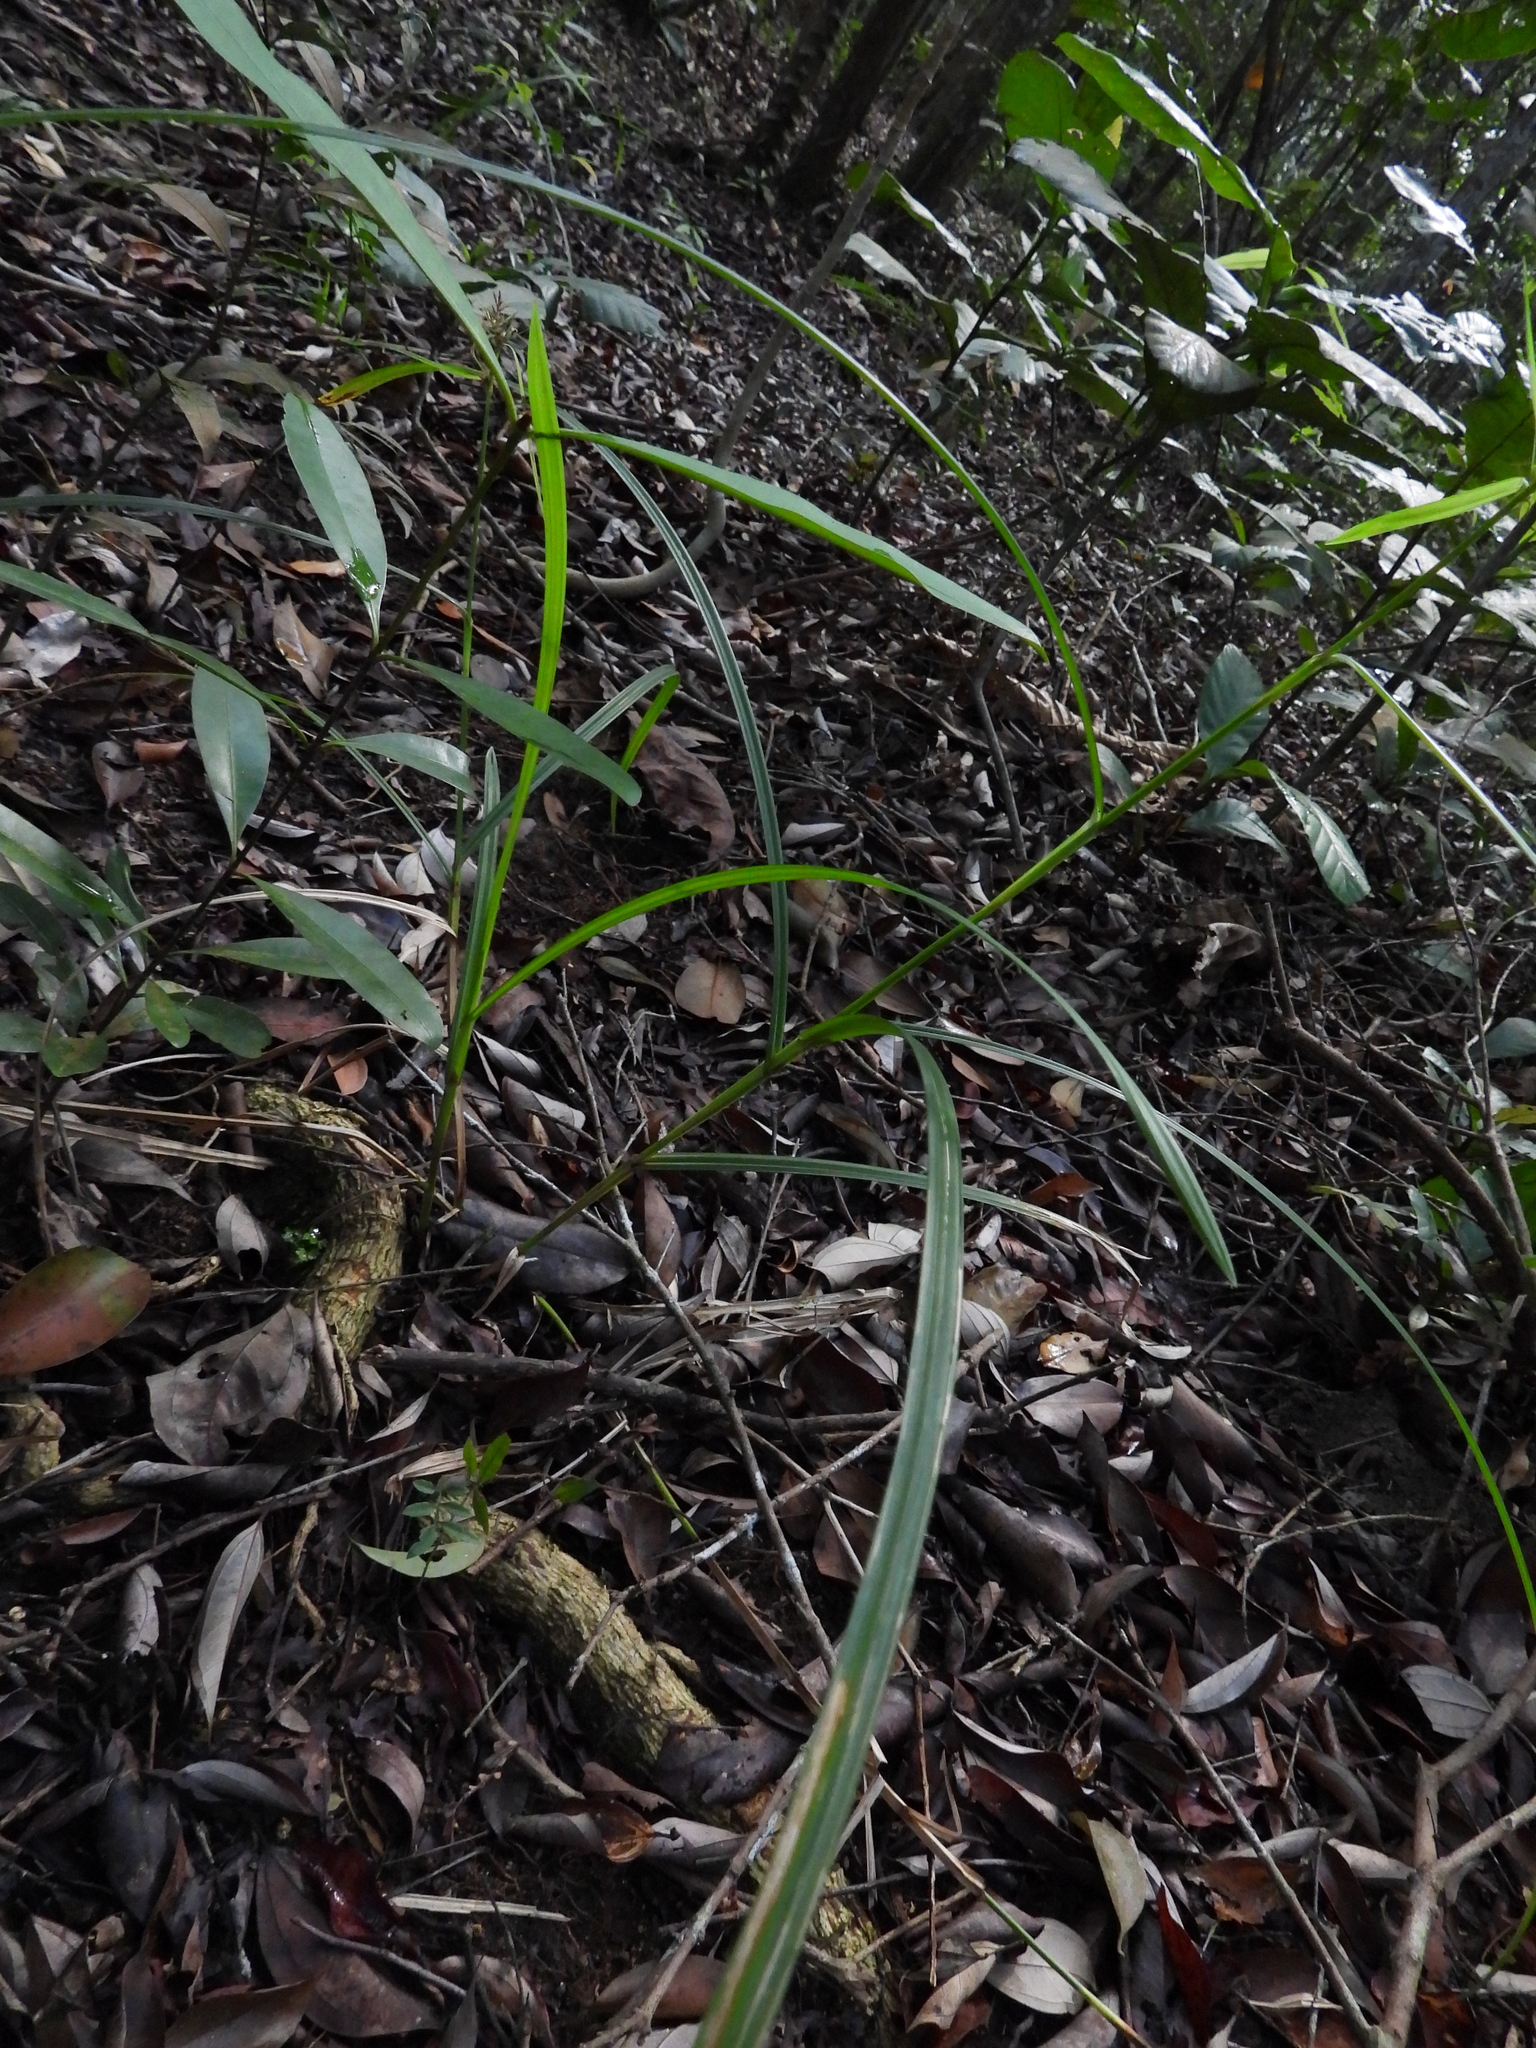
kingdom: Plantae
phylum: Tracheophyta
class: Liliopsida
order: Poales
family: Cyperaceae
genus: Scleria
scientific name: Scleria levis
